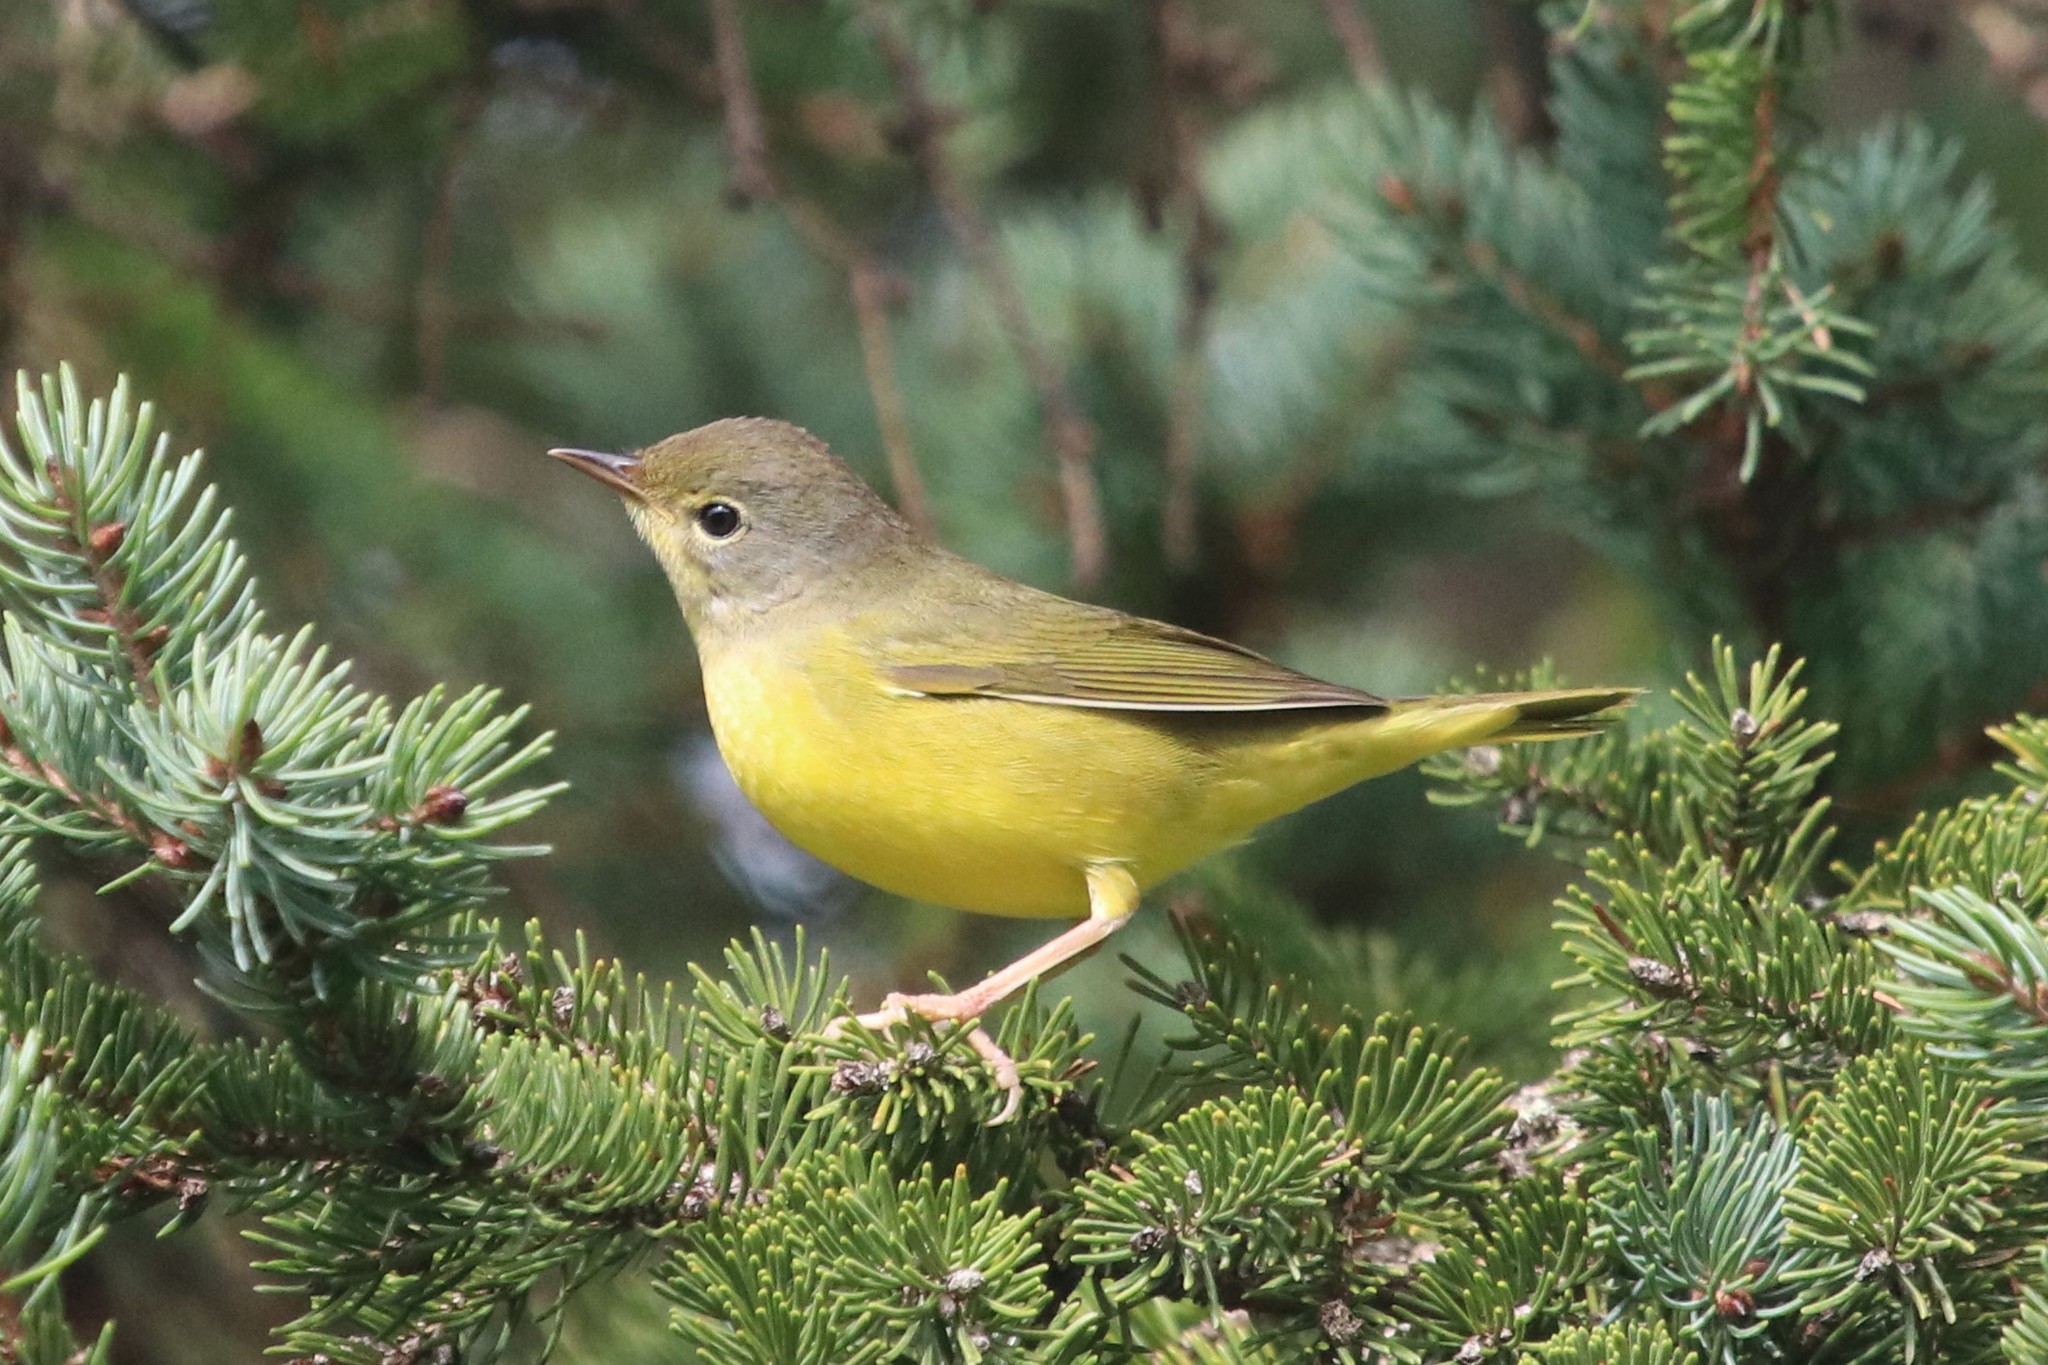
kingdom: Animalia
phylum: Chordata
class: Aves
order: Passeriformes
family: Parulidae
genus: Geothlypis
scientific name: Geothlypis philadelphia
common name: Mourning warbler
